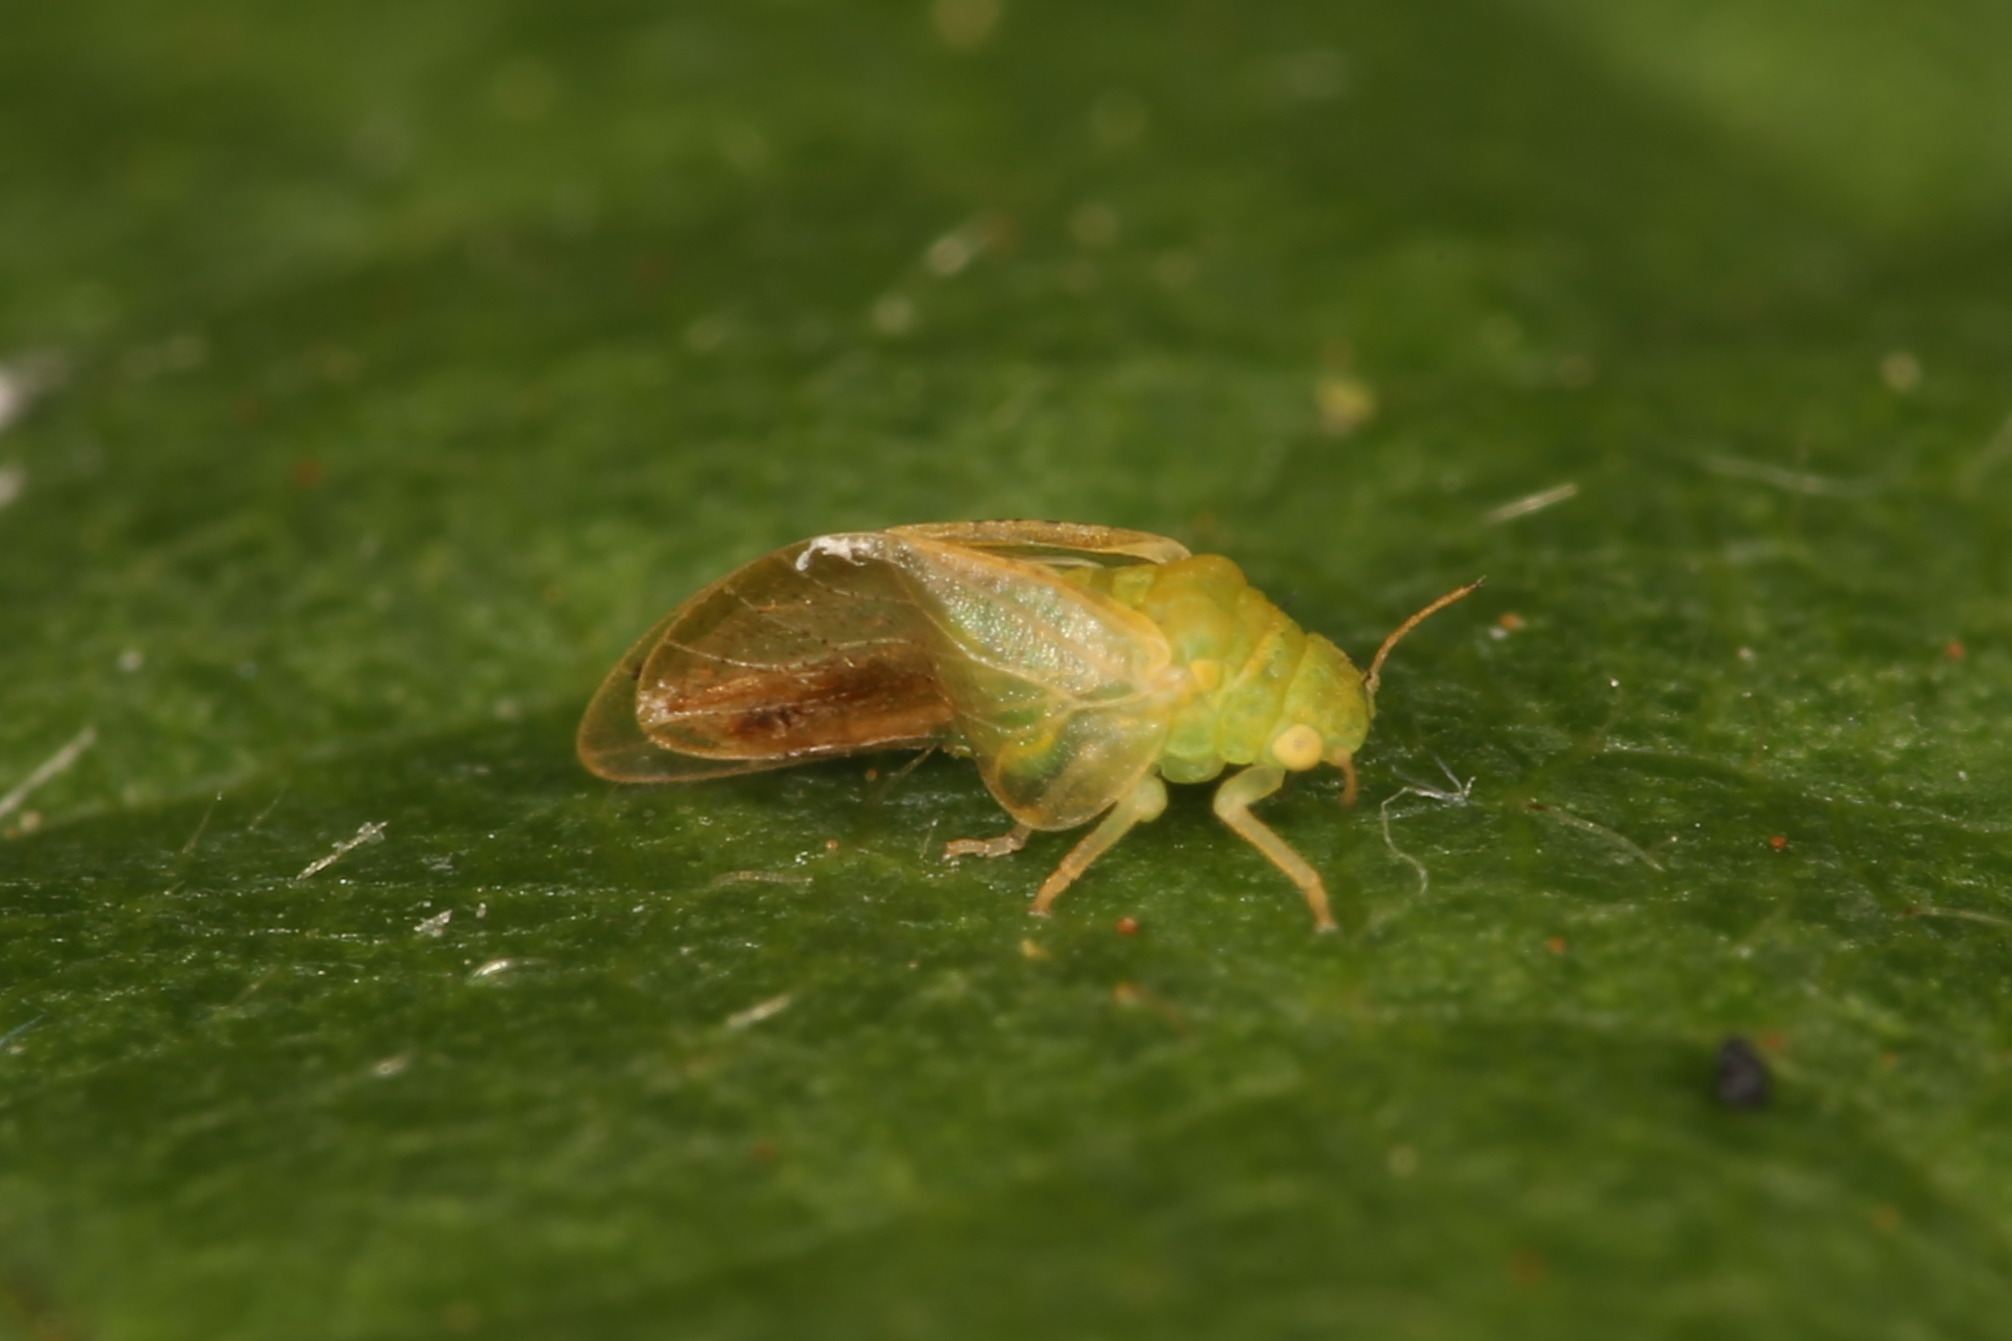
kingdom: Animalia
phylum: Arthropoda
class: Insecta
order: Hemiptera
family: Aphalaridae
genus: Rhinocola
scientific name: Rhinocola aceris
